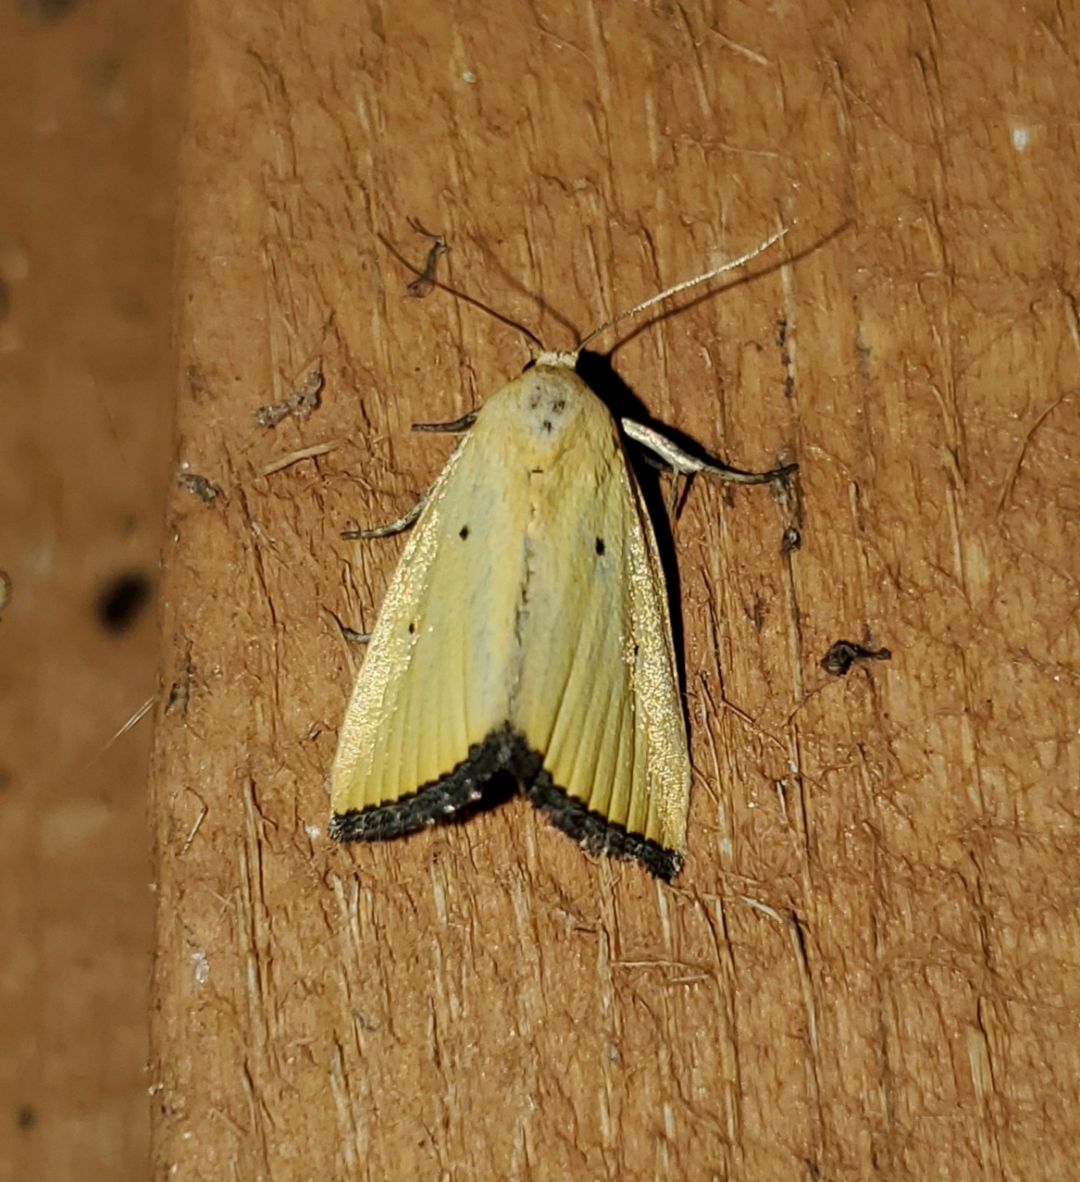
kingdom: Animalia
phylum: Arthropoda
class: Insecta
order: Lepidoptera
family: Noctuidae
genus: Marimatha
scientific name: Marimatha nigrofimbria
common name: Black-bordered lemon moth
